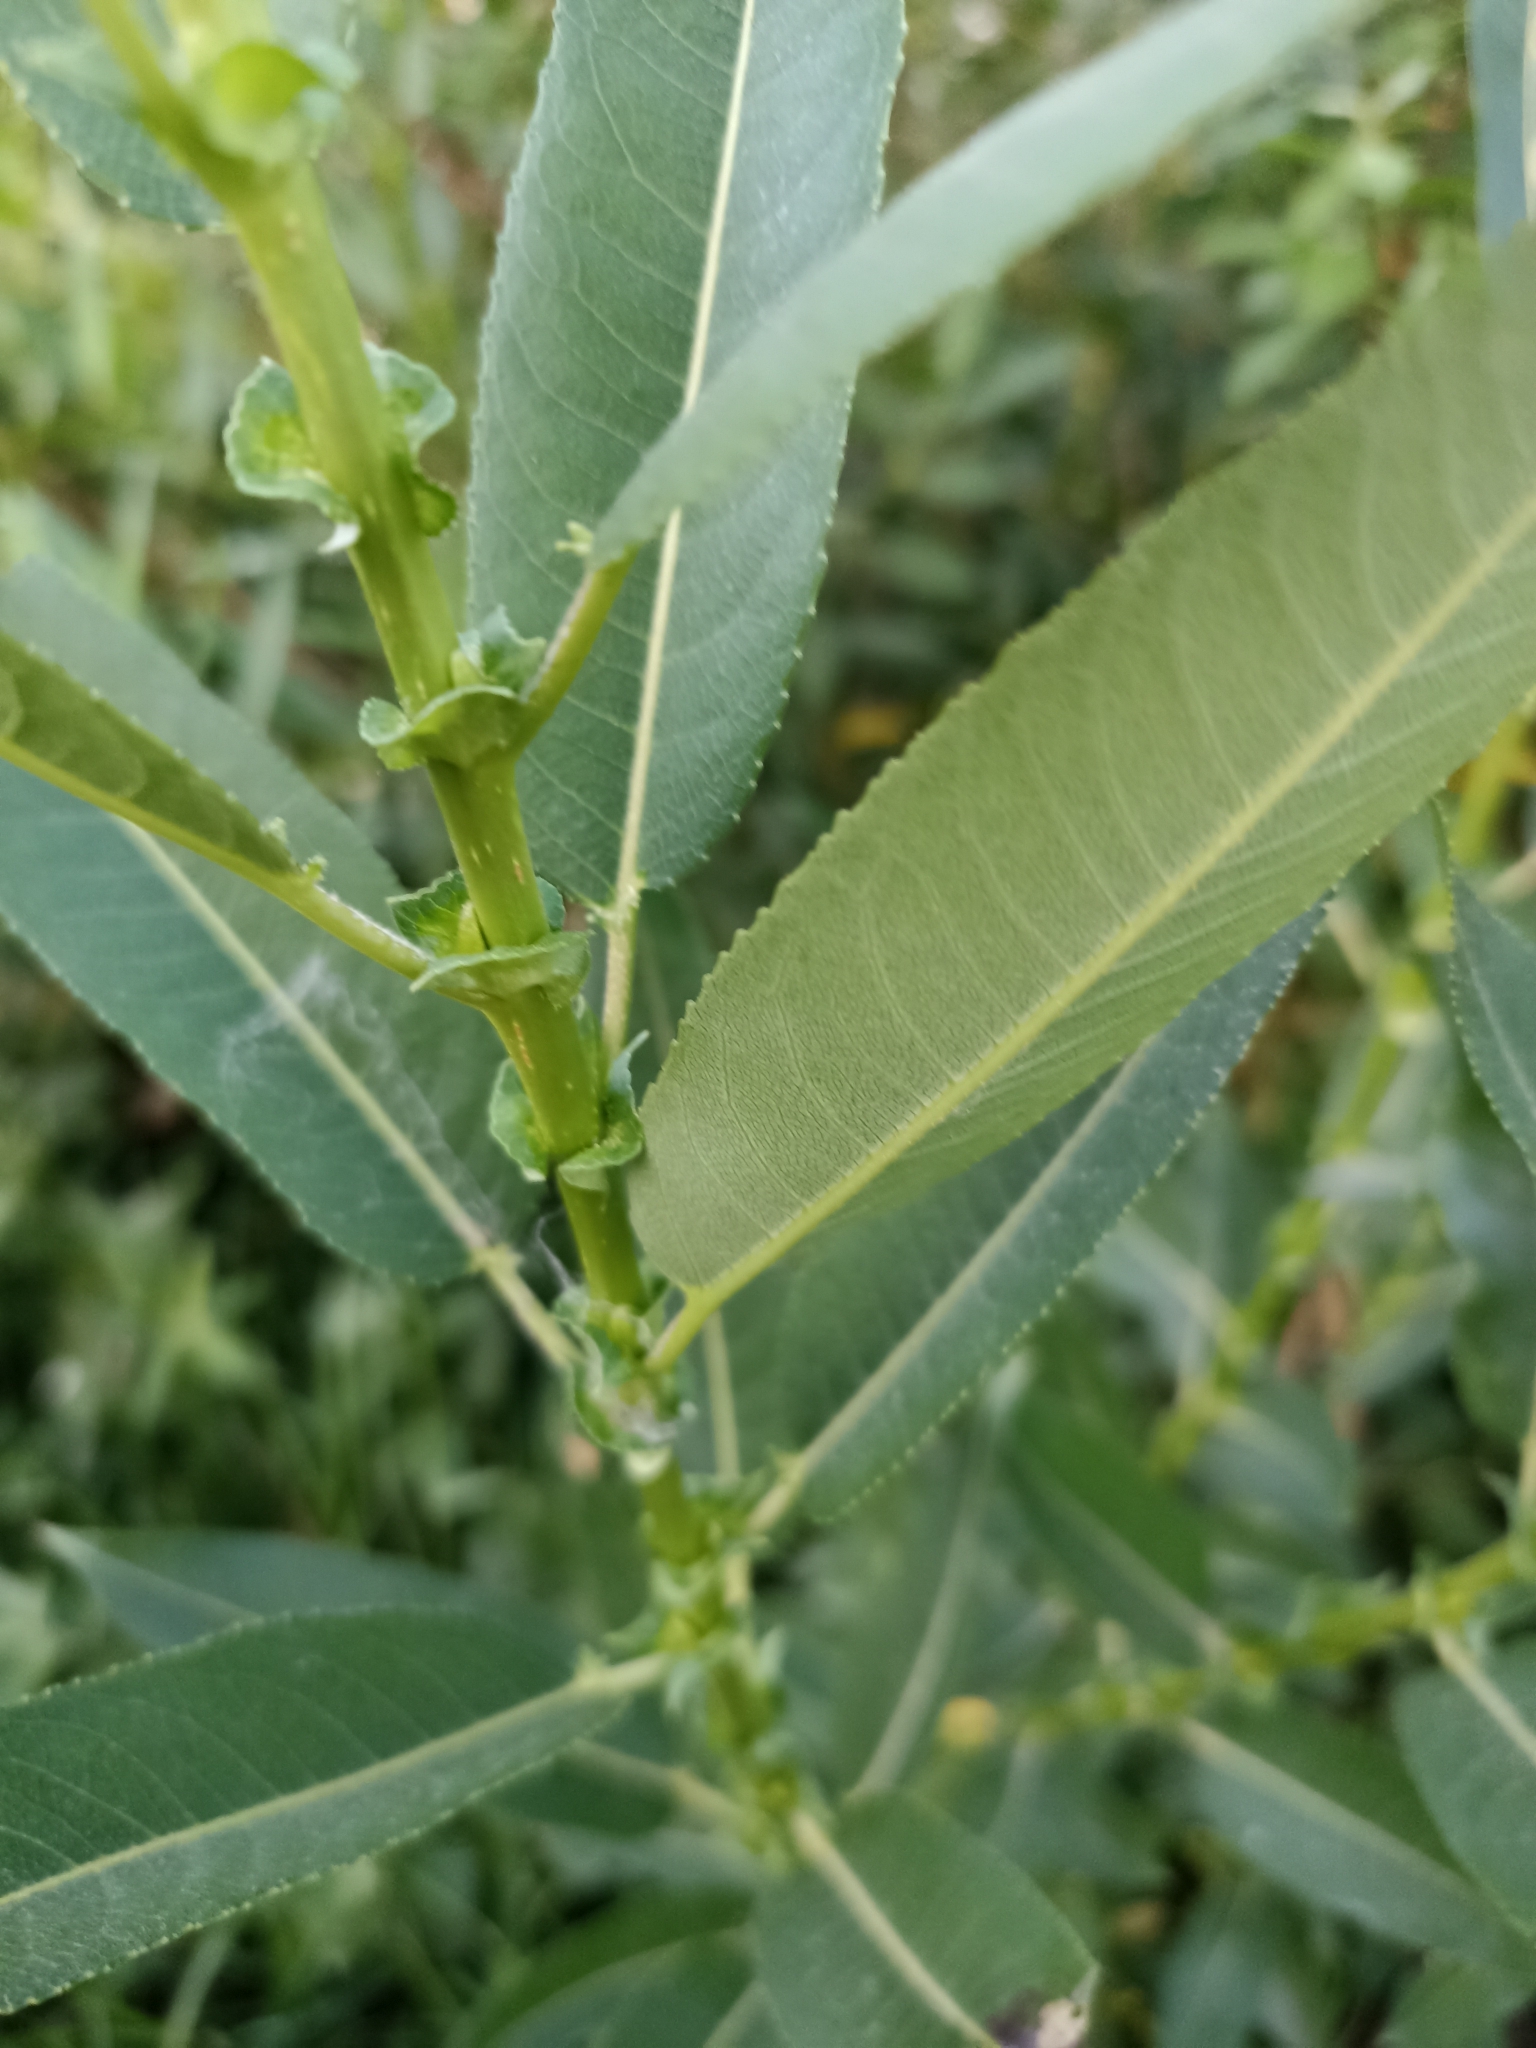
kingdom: Plantae
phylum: Tracheophyta
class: Magnoliopsida
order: Malpighiales
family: Salicaceae
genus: Salix
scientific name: Salix triandra
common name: Almond willow
